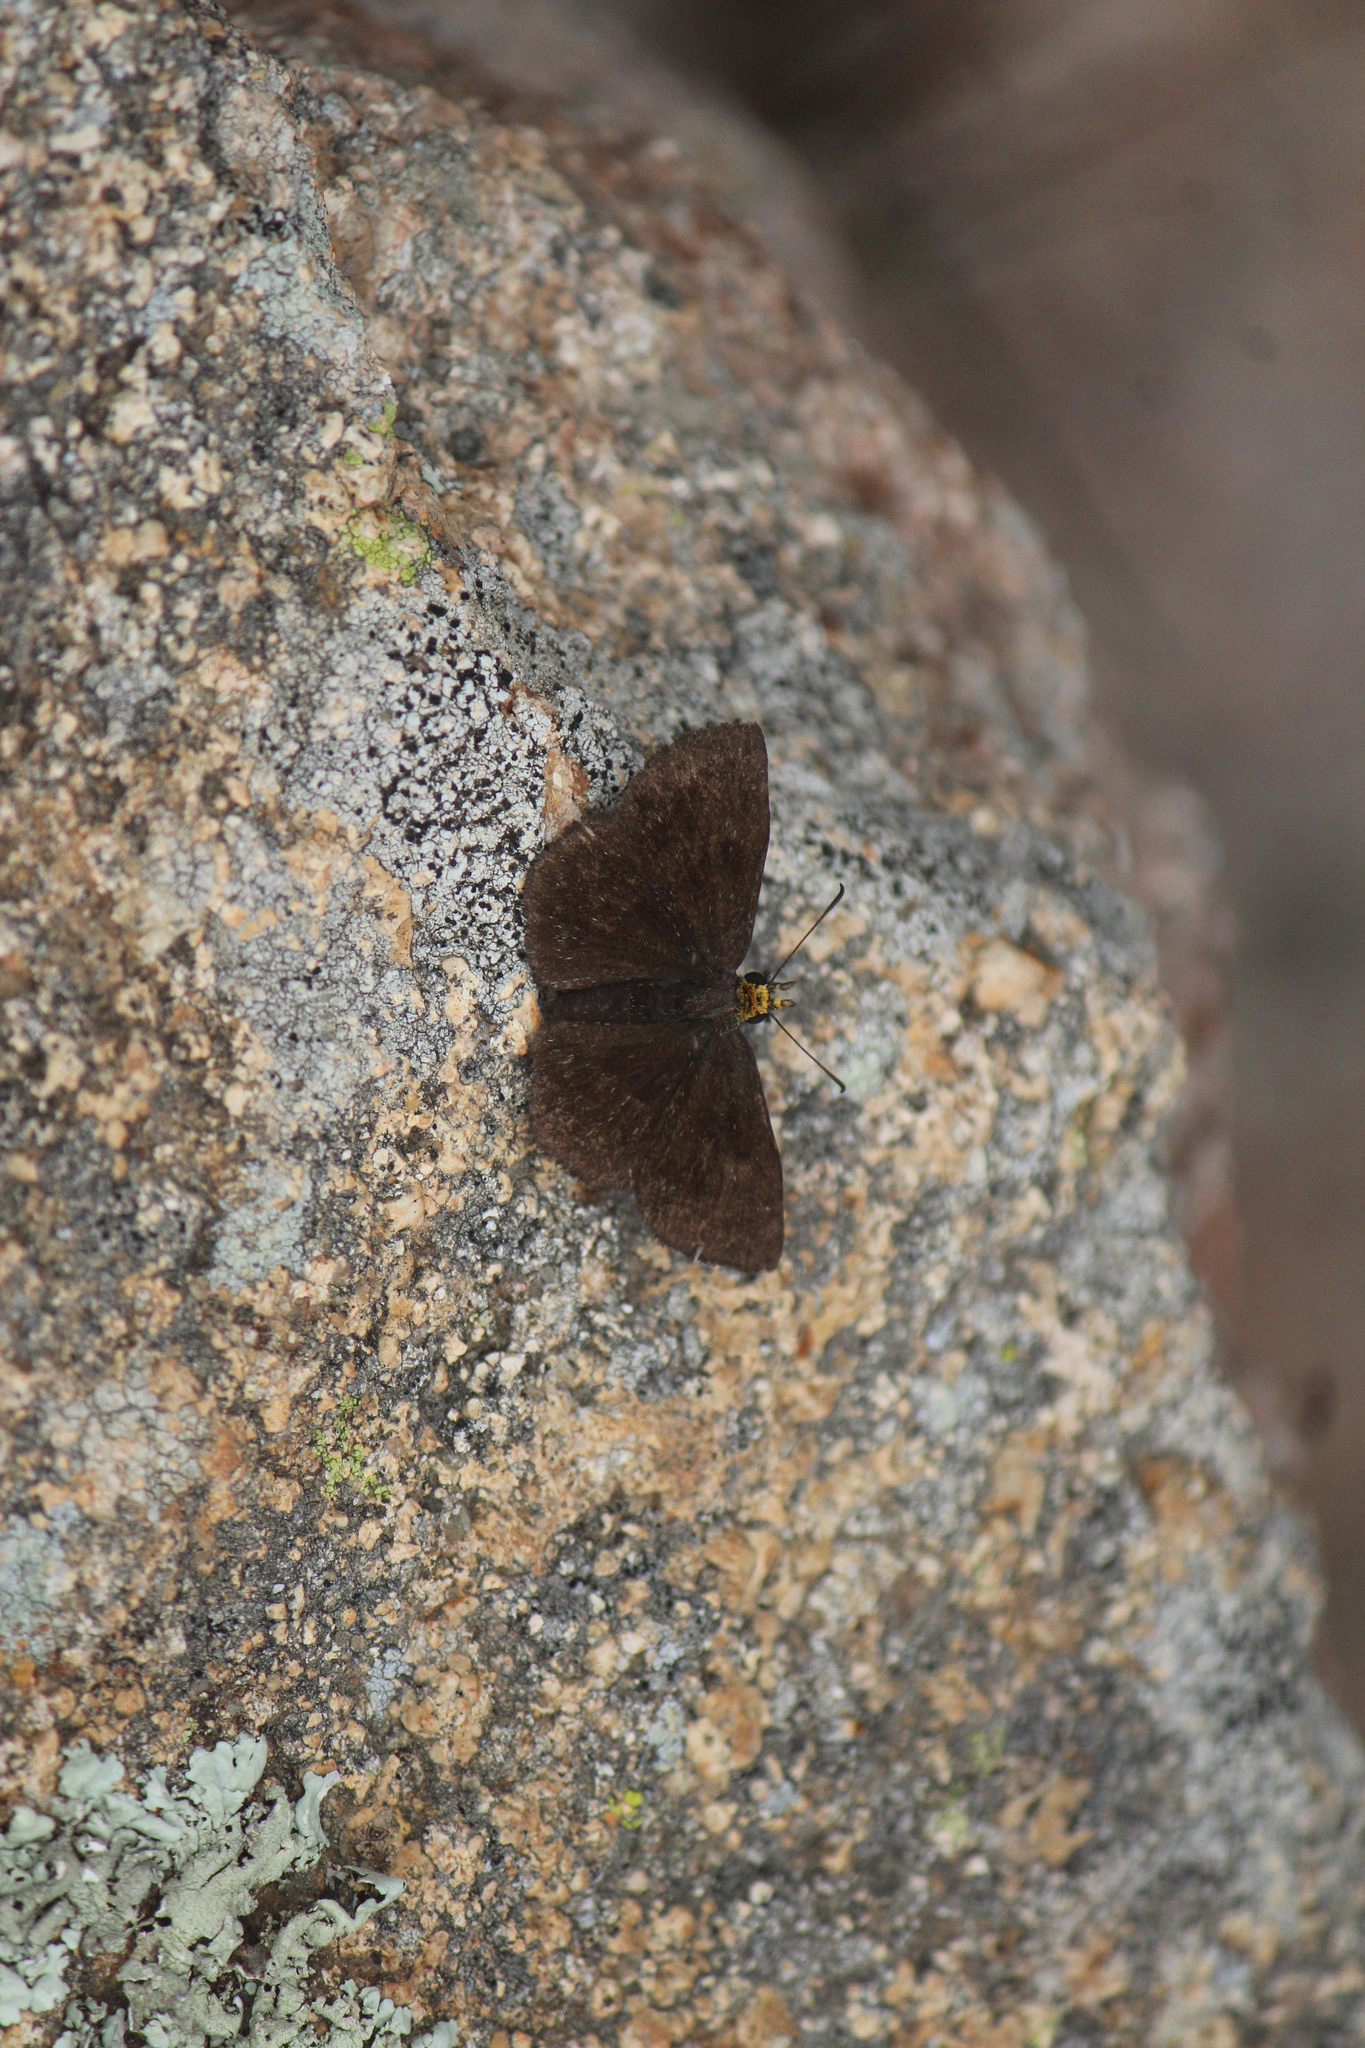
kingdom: Animalia
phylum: Arthropoda
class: Insecta
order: Lepidoptera
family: Hesperiidae
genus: Staphylus
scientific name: Staphylus ceos
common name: Golden-headed scallopwing
